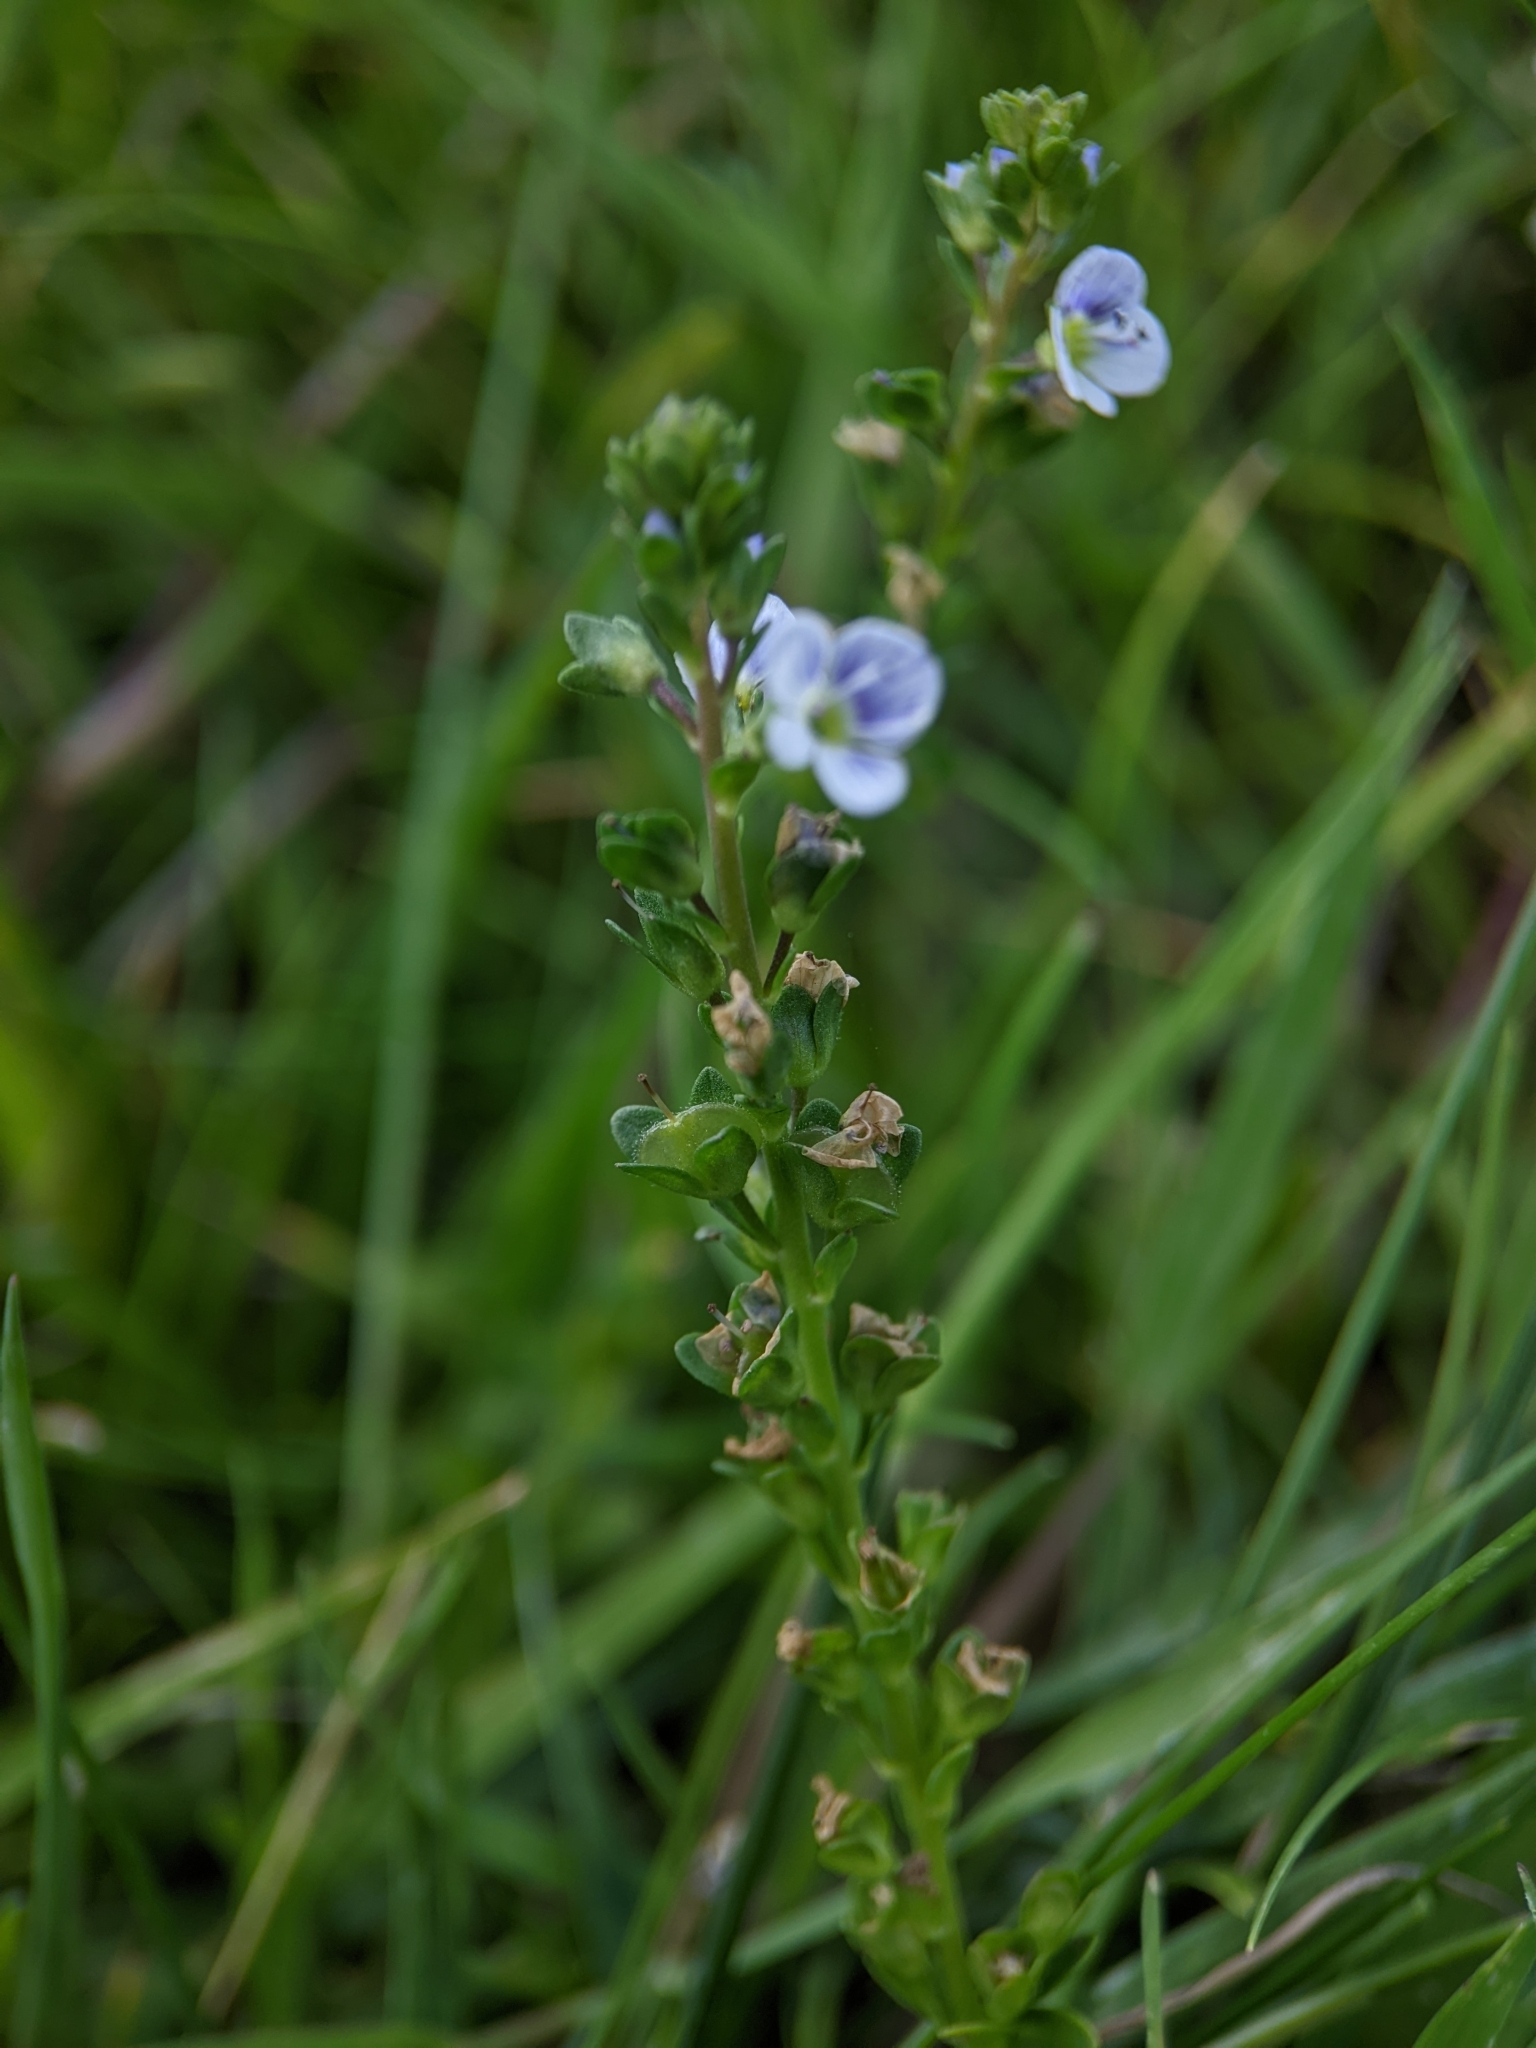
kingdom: Plantae
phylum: Tracheophyta
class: Magnoliopsida
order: Lamiales
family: Plantaginaceae
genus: Veronica
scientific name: Veronica serpyllifolia
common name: Thyme-leaved speedwell
